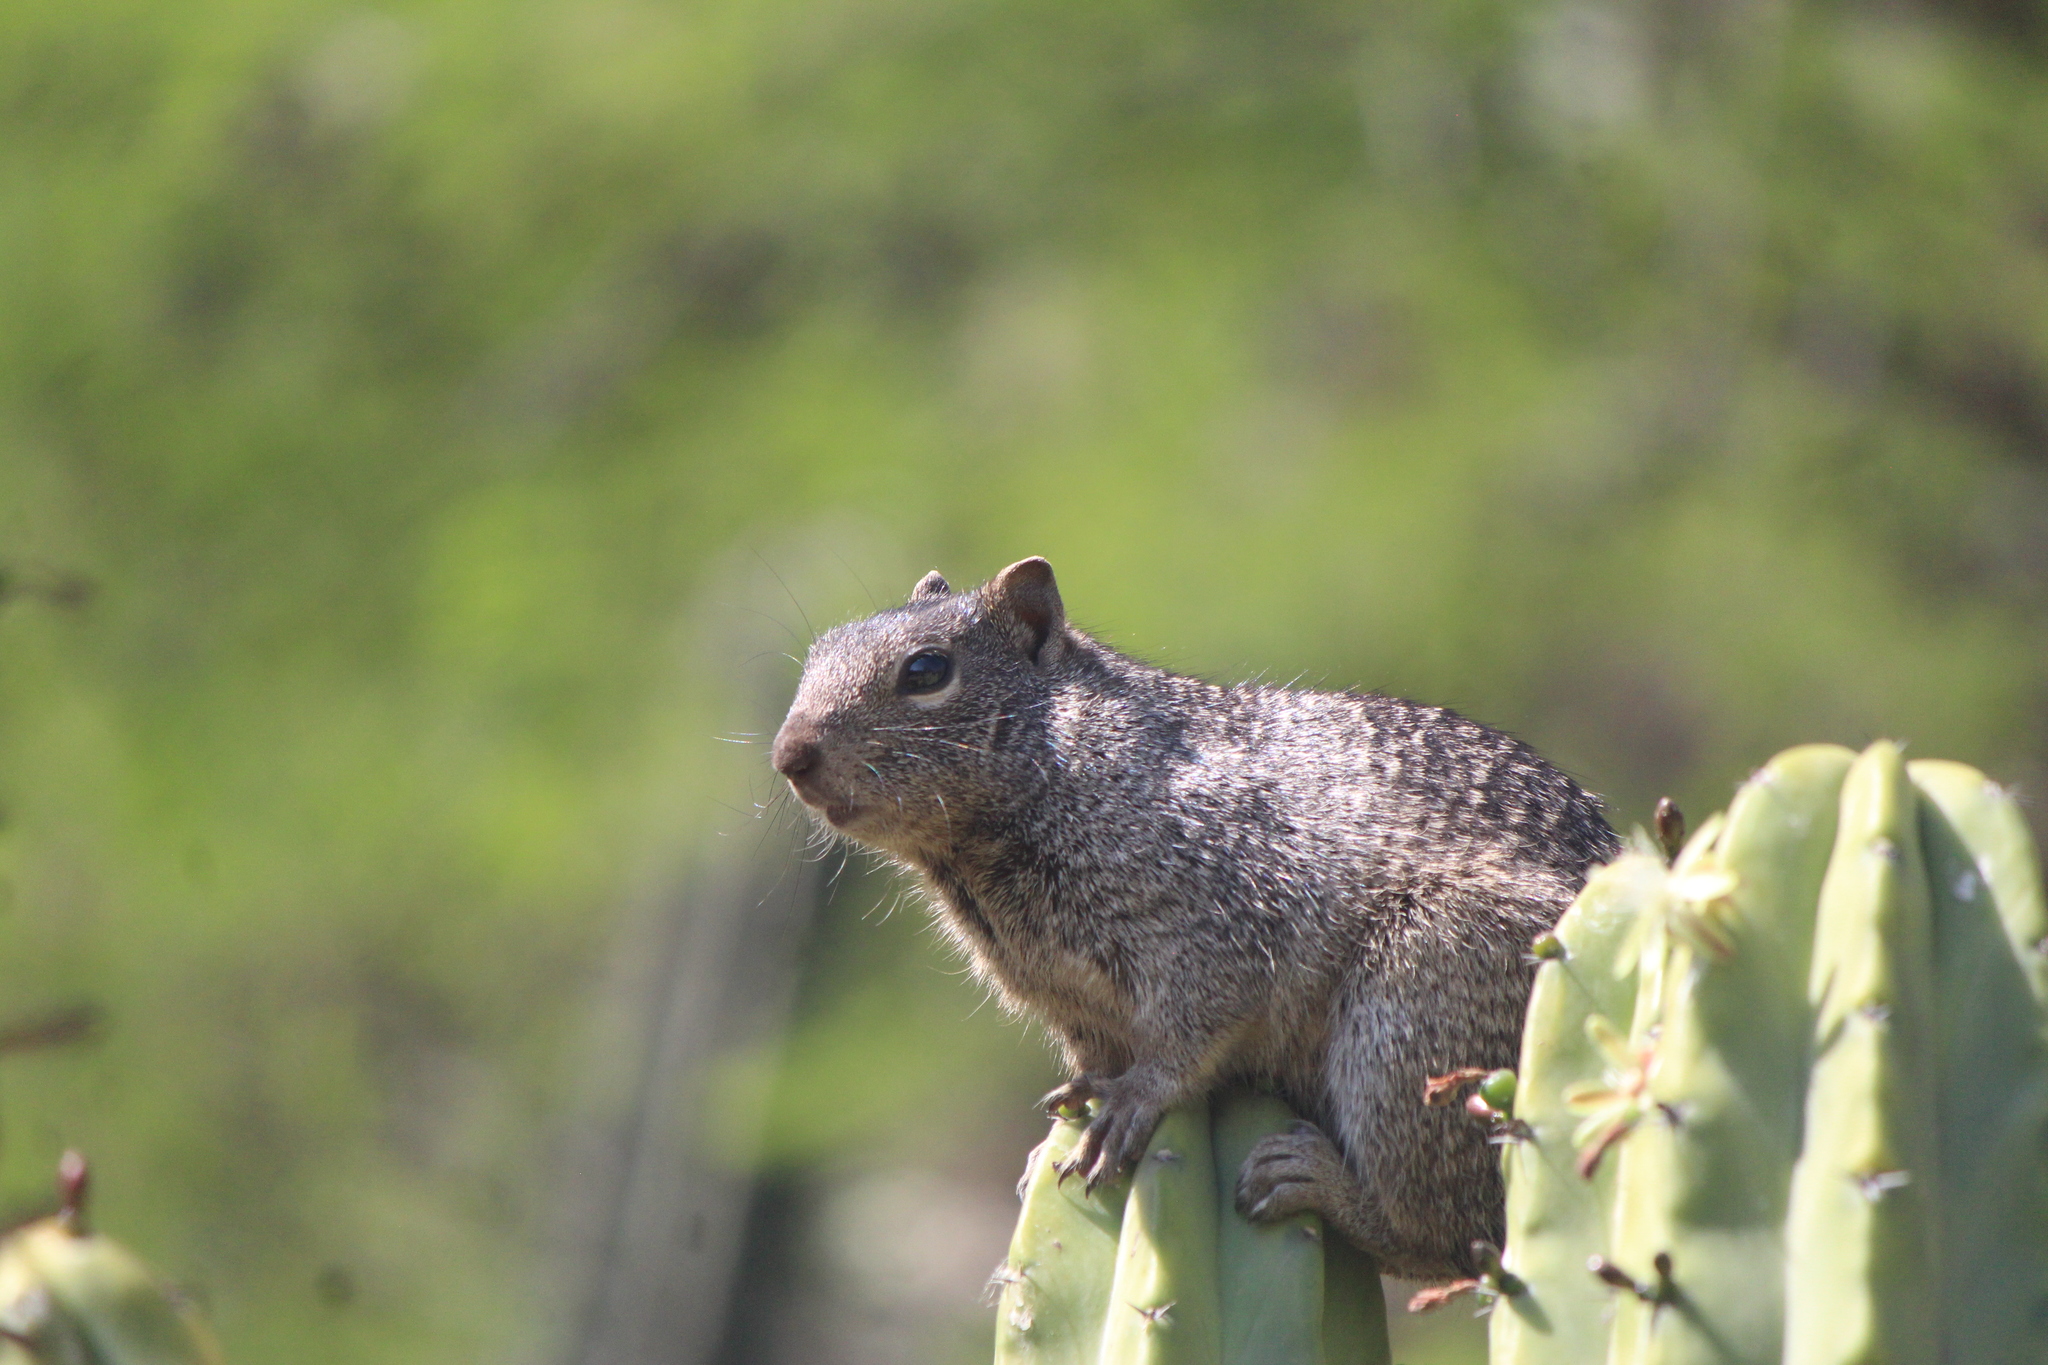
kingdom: Animalia
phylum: Chordata
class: Mammalia
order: Rodentia
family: Sciuridae
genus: Otospermophilus
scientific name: Otospermophilus variegatus
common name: Rock squirrel
